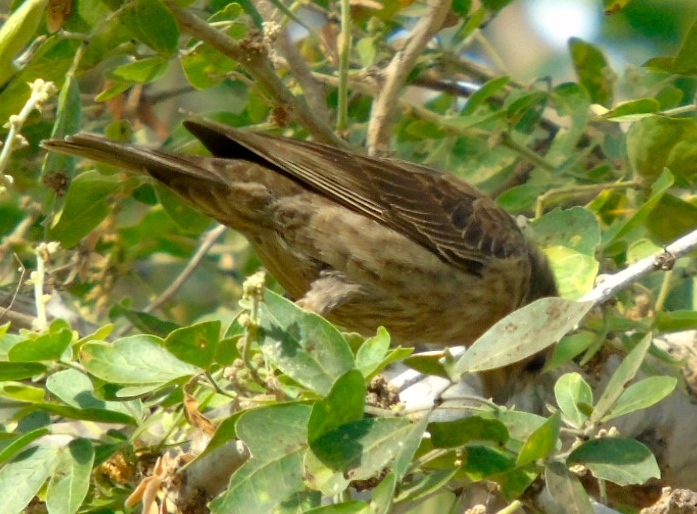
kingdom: Animalia
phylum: Chordata
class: Aves
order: Passeriformes
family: Icteridae
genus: Molothrus
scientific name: Molothrus ater
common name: Brown-headed cowbird
